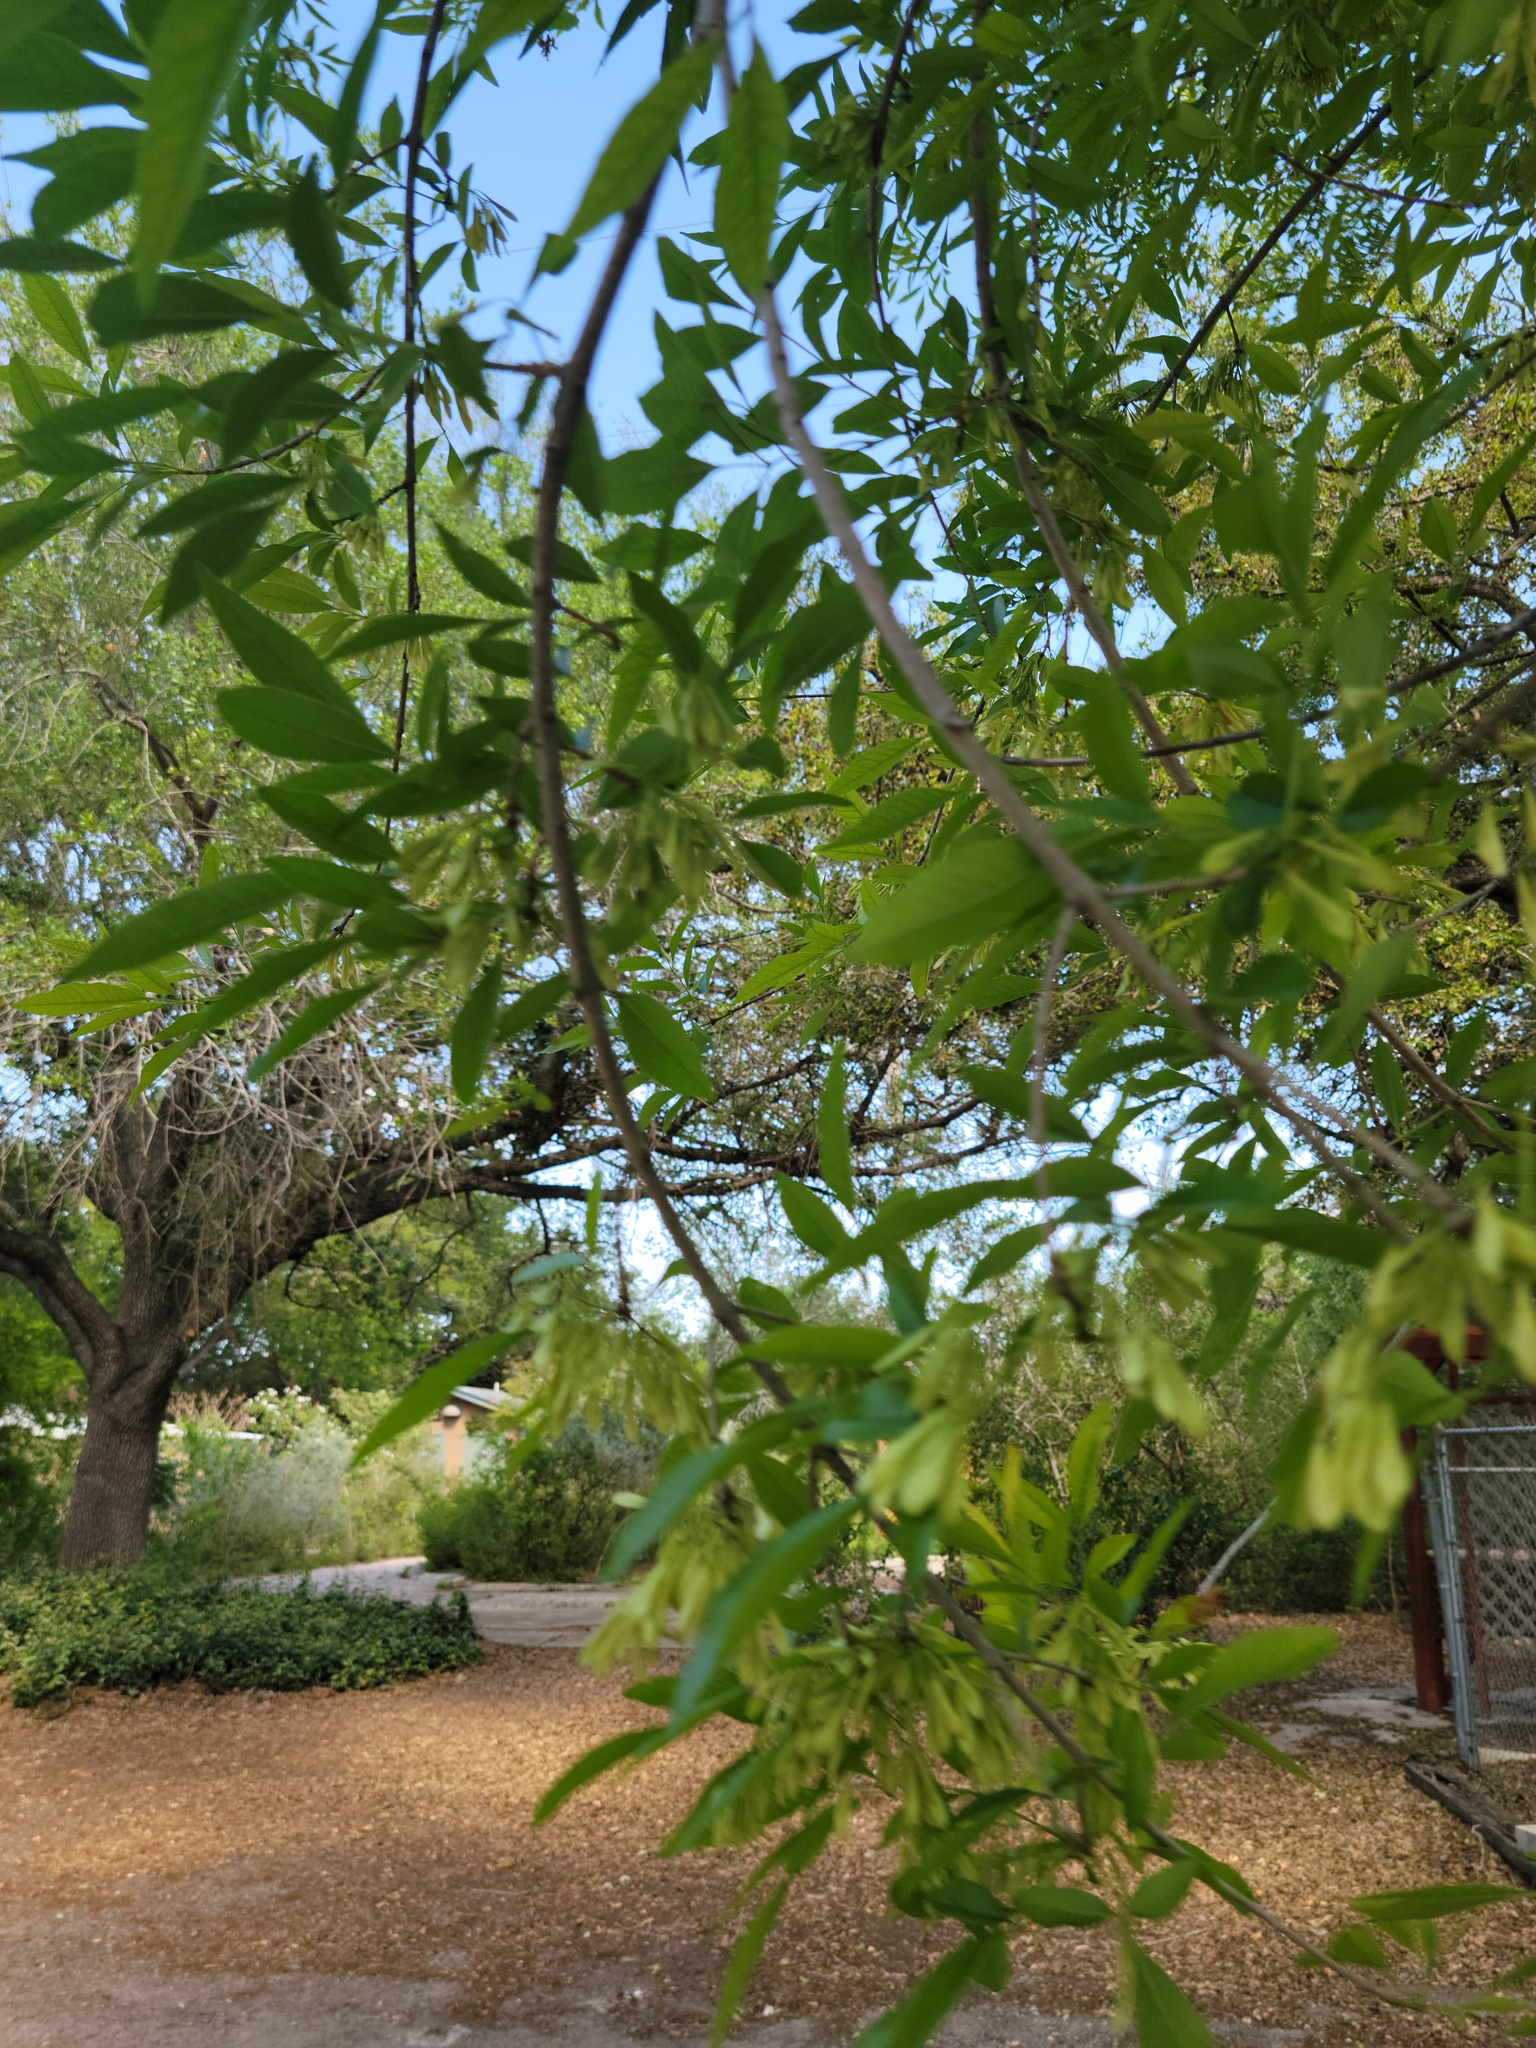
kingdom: Plantae
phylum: Tracheophyta
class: Magnoliopsida
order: Lamiales
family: Oleaceae
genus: Fraxinus
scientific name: Fraxinus berlandieriana
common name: Berlandier ash
